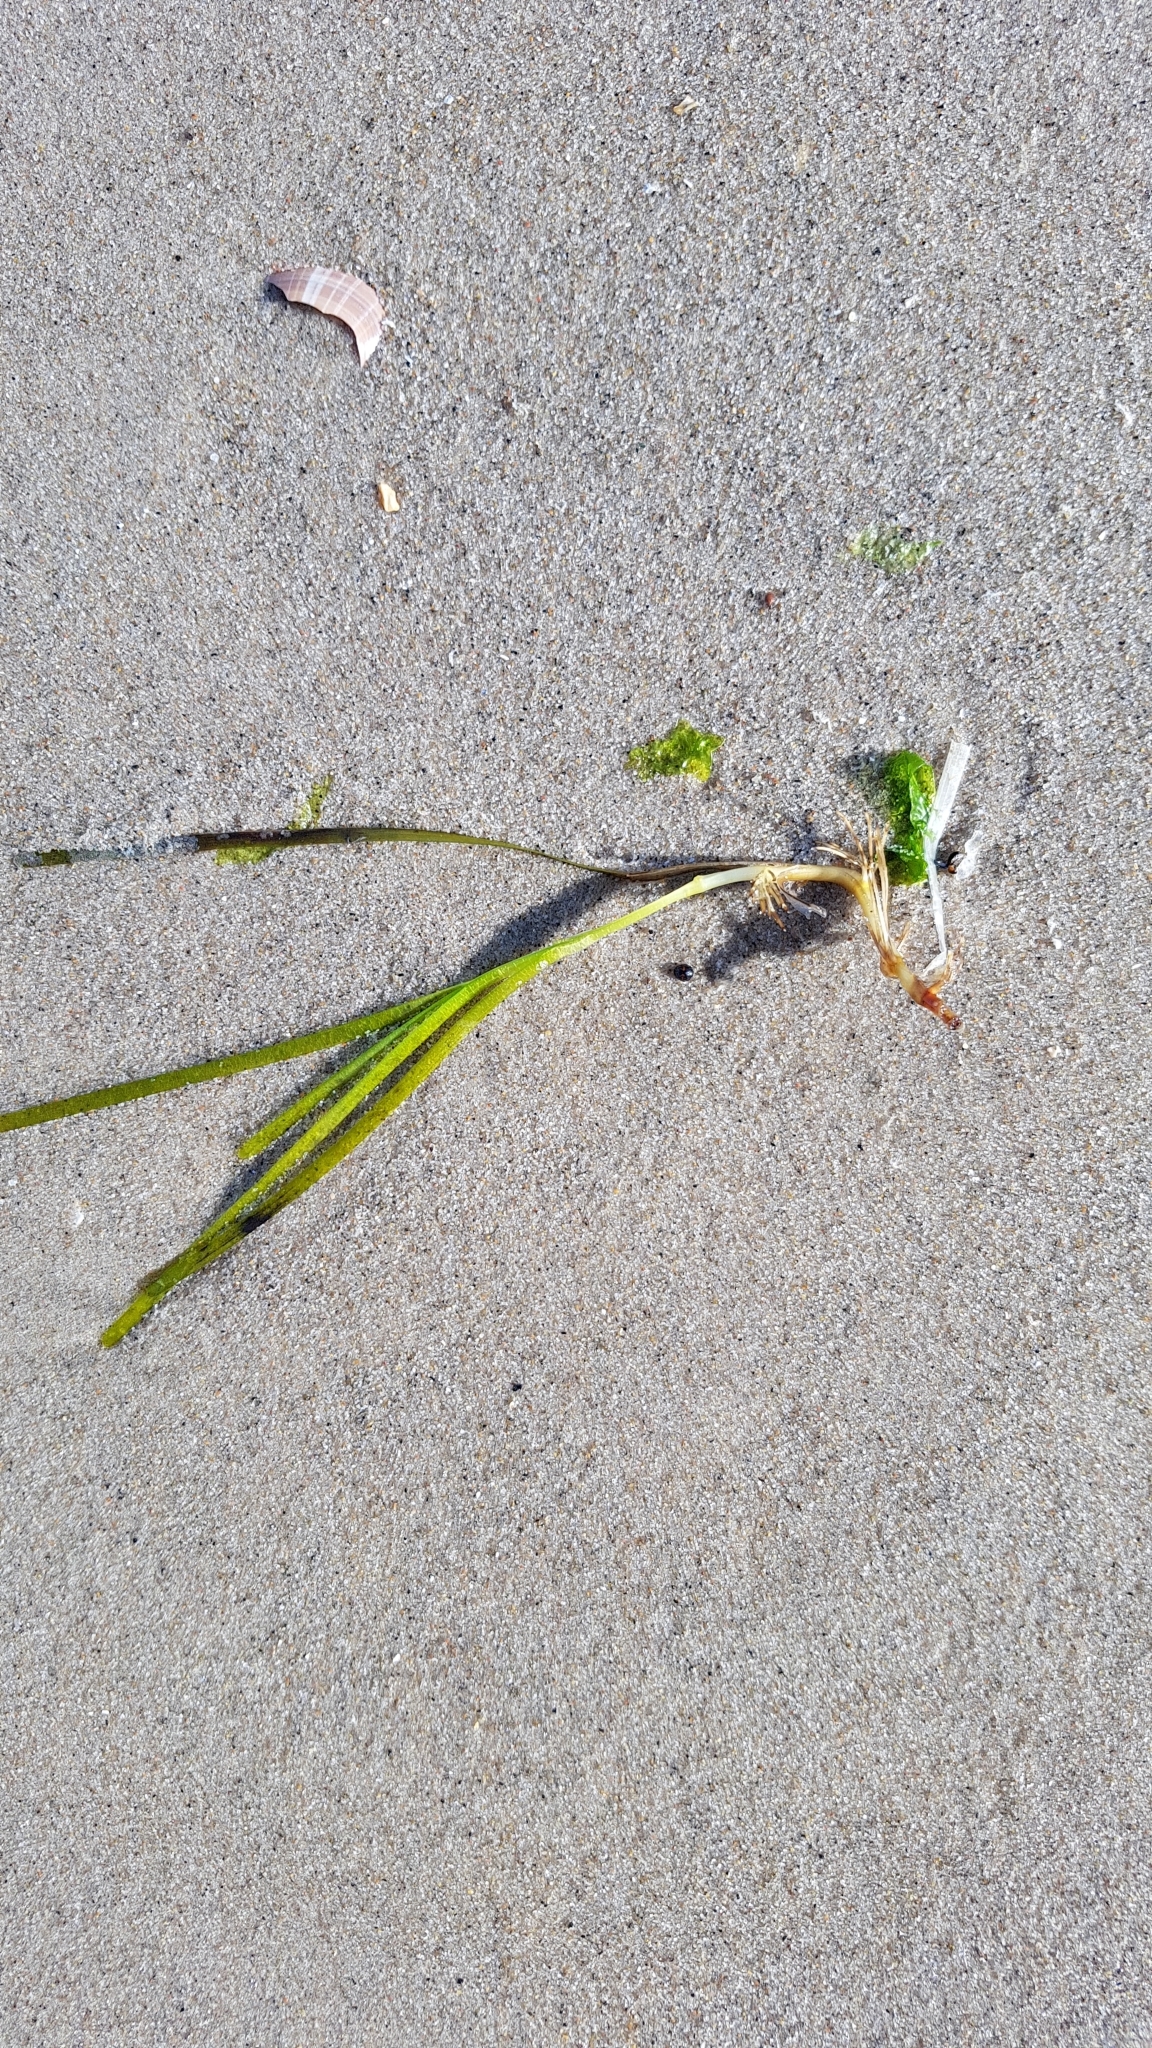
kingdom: Plantae
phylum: Tracheophyta
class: Liliopsida
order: Alismatales
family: Zosteraceae
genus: Zostera
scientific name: Zostera marina
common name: Eelgrass
